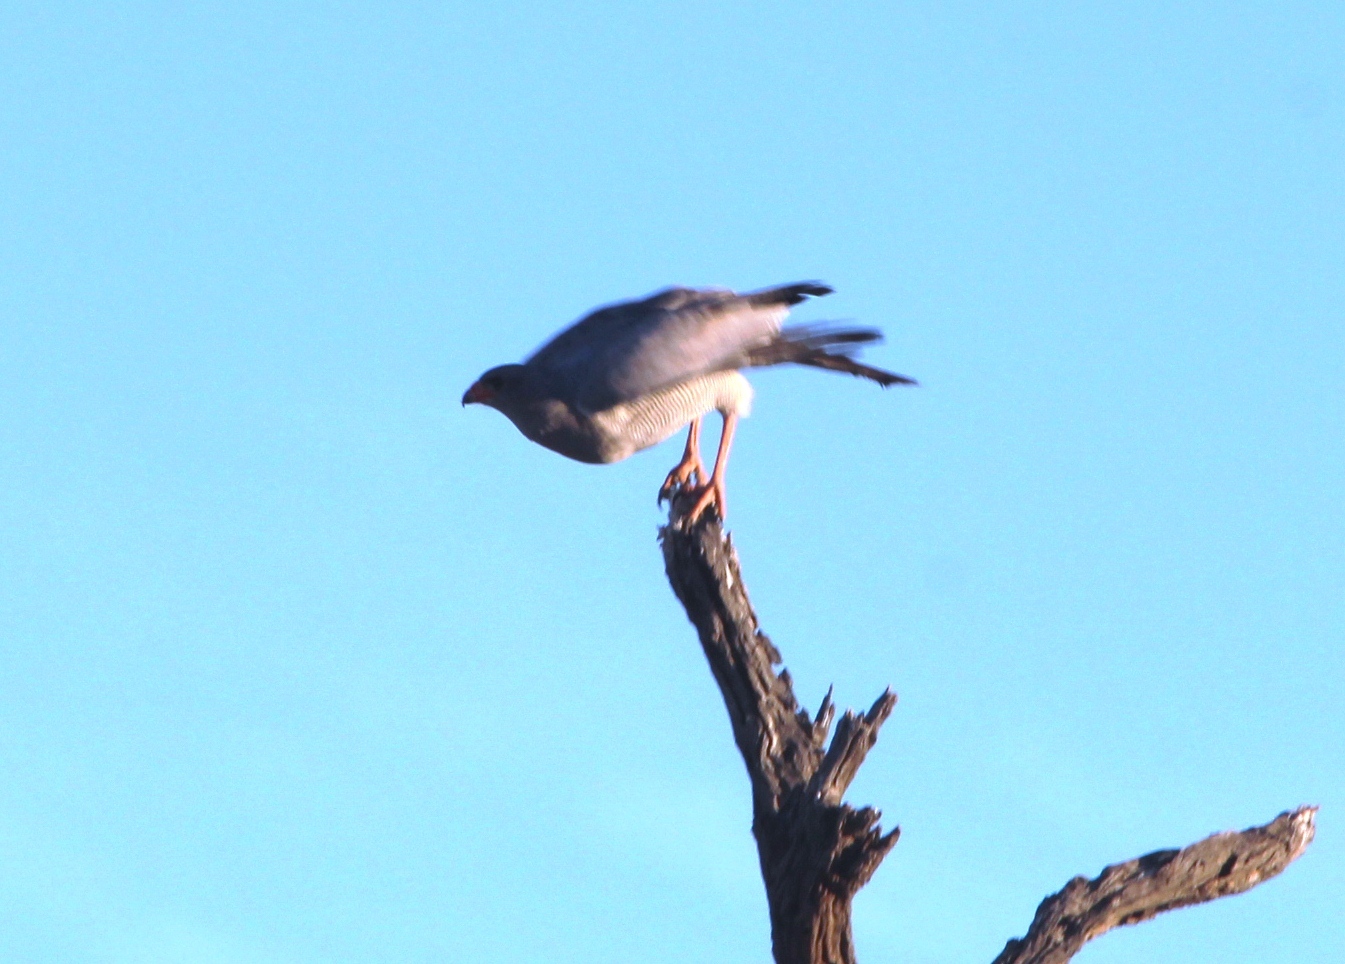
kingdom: Animalia
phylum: Chordata
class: Aves
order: Accipitriformes
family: Accipitridae
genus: Melierax
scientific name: Melierax canorus
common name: Pale chanting-goshawk
